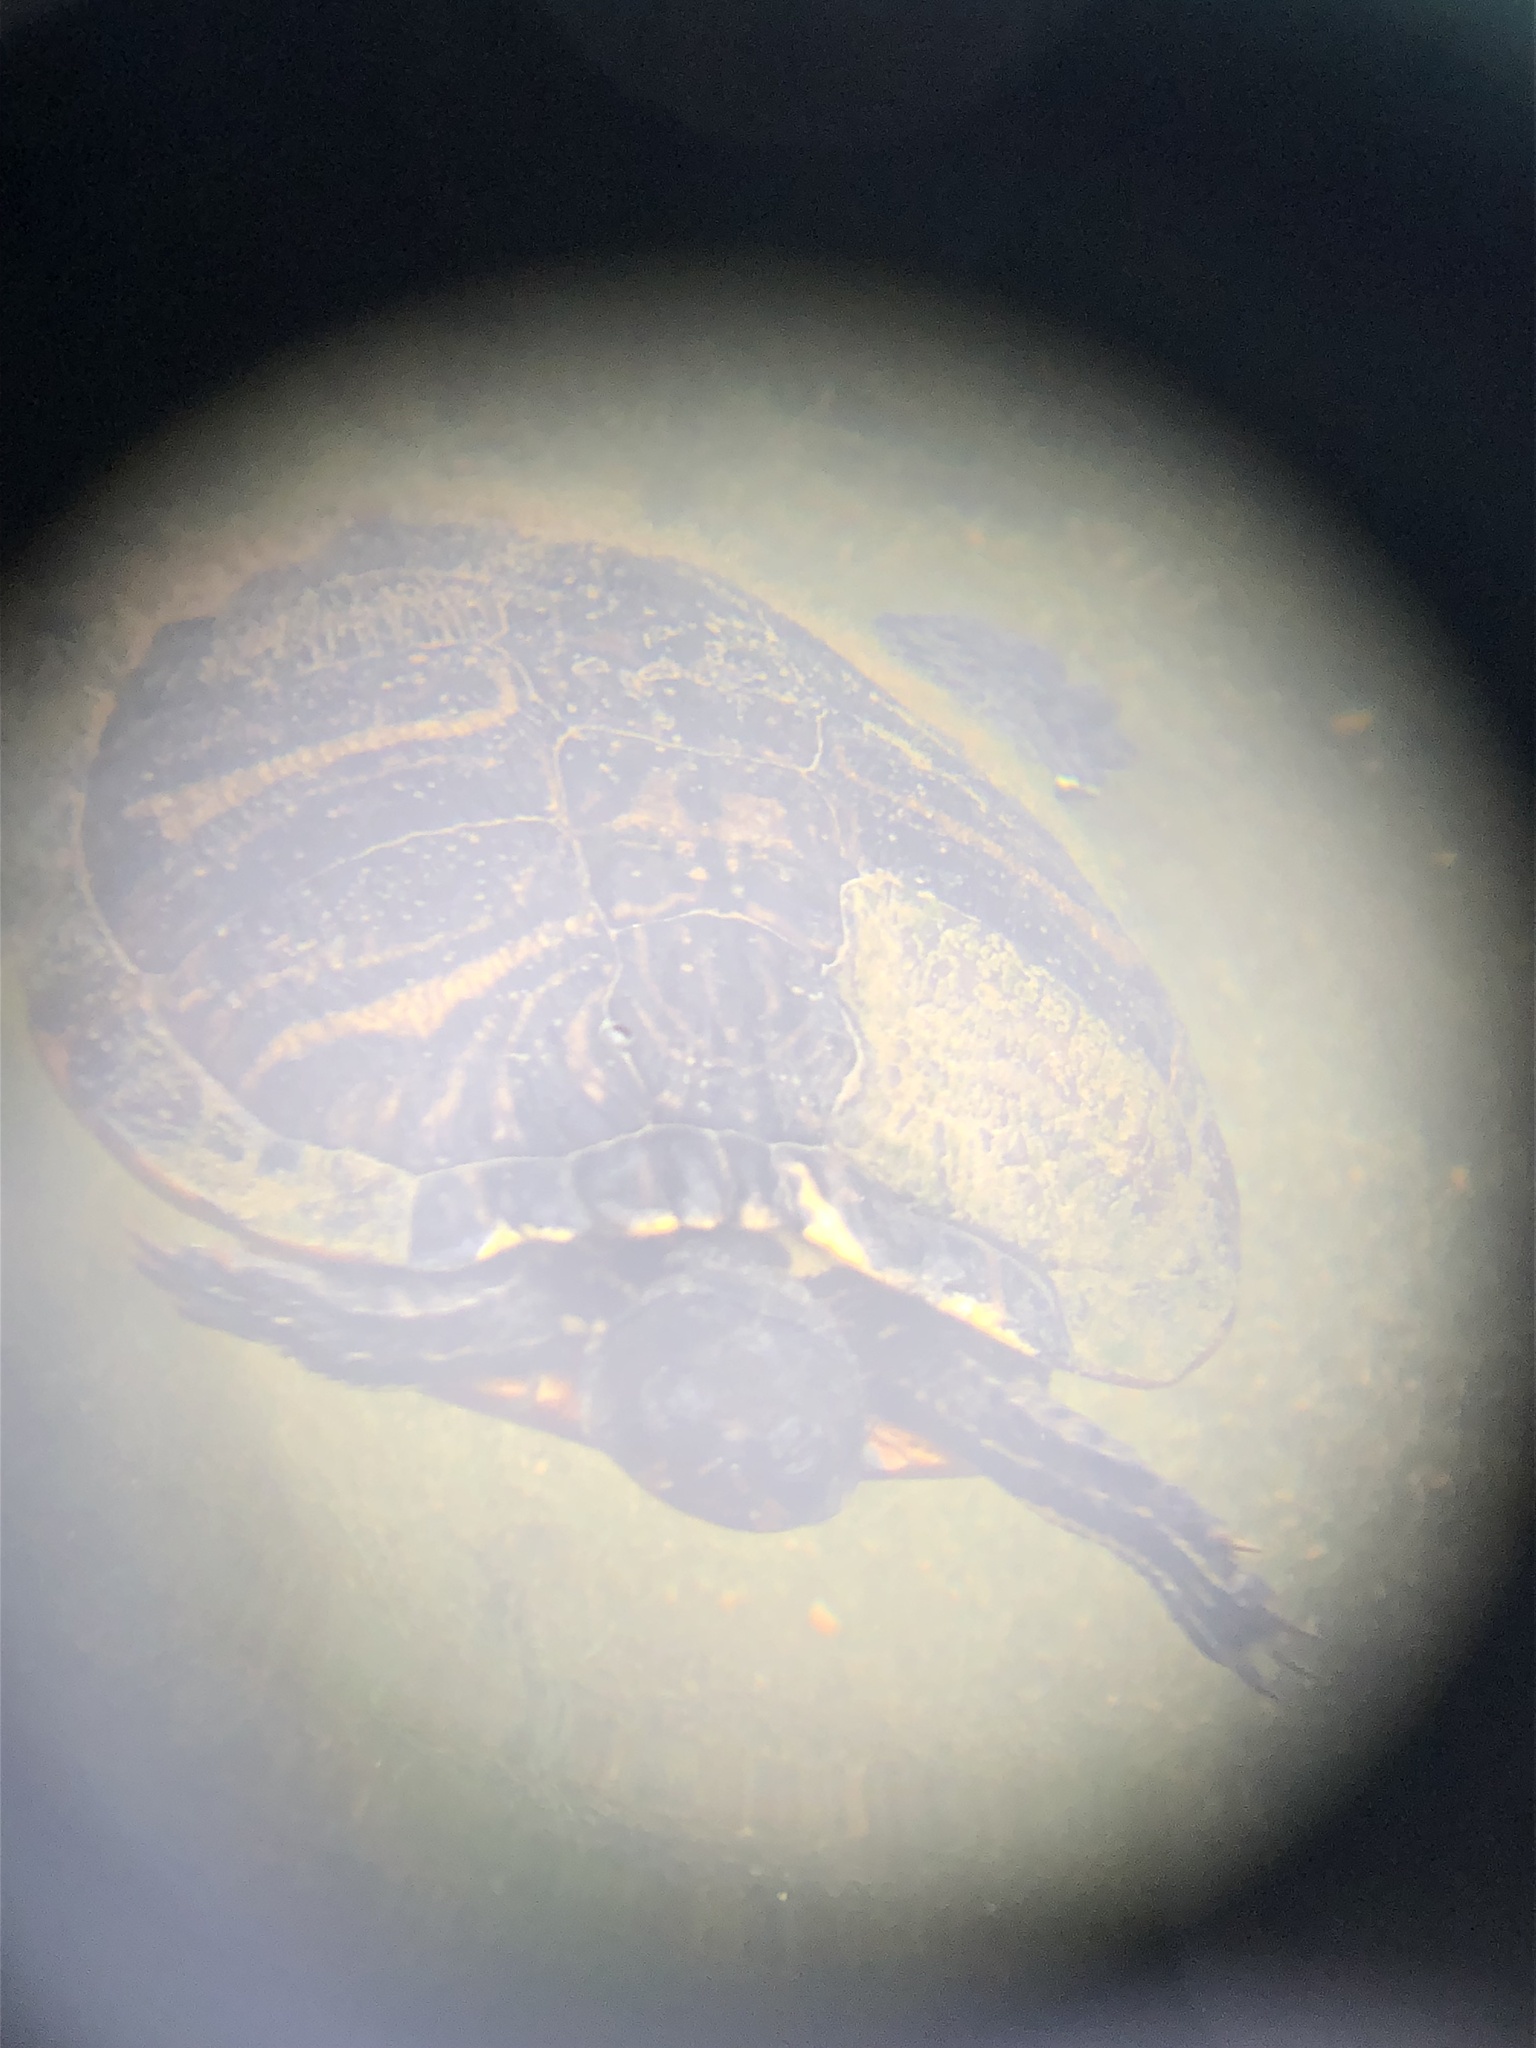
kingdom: Animalia
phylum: Chordata
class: Testudines
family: Emydidae
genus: Trachemys
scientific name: Trachemys scripta
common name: Slider
